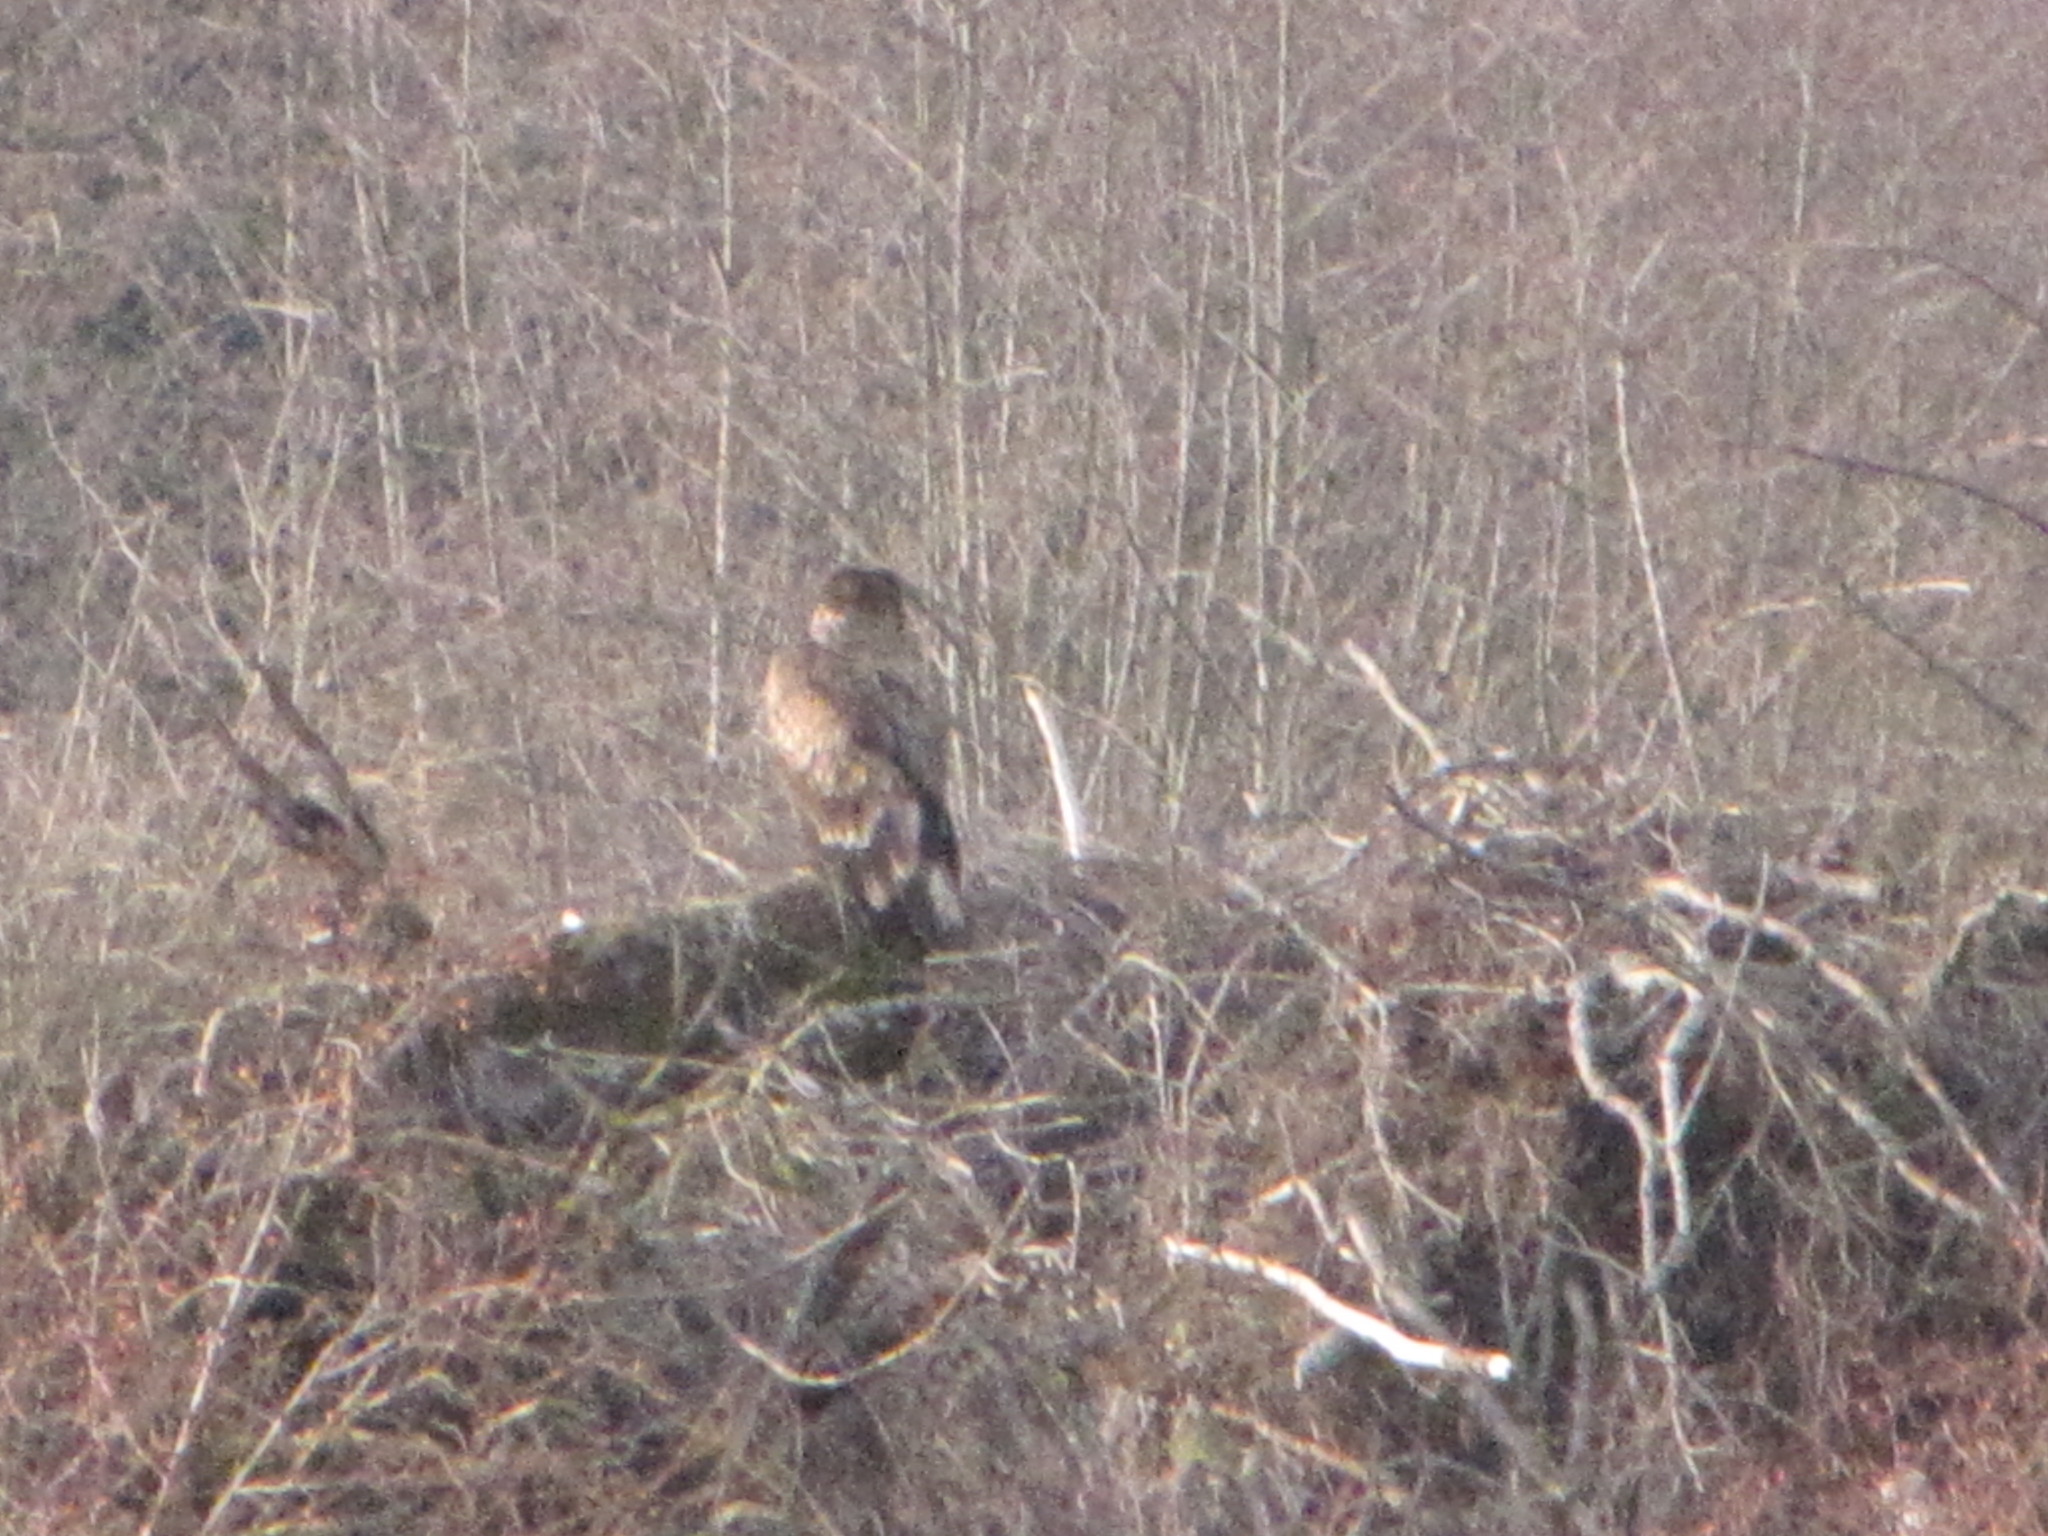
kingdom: Animalia
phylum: Chordata
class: Aves
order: Accipitriformes
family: Accipitridae
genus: Haliaeetus
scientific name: Haliaeetus leucocephalus
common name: Bald eagle
